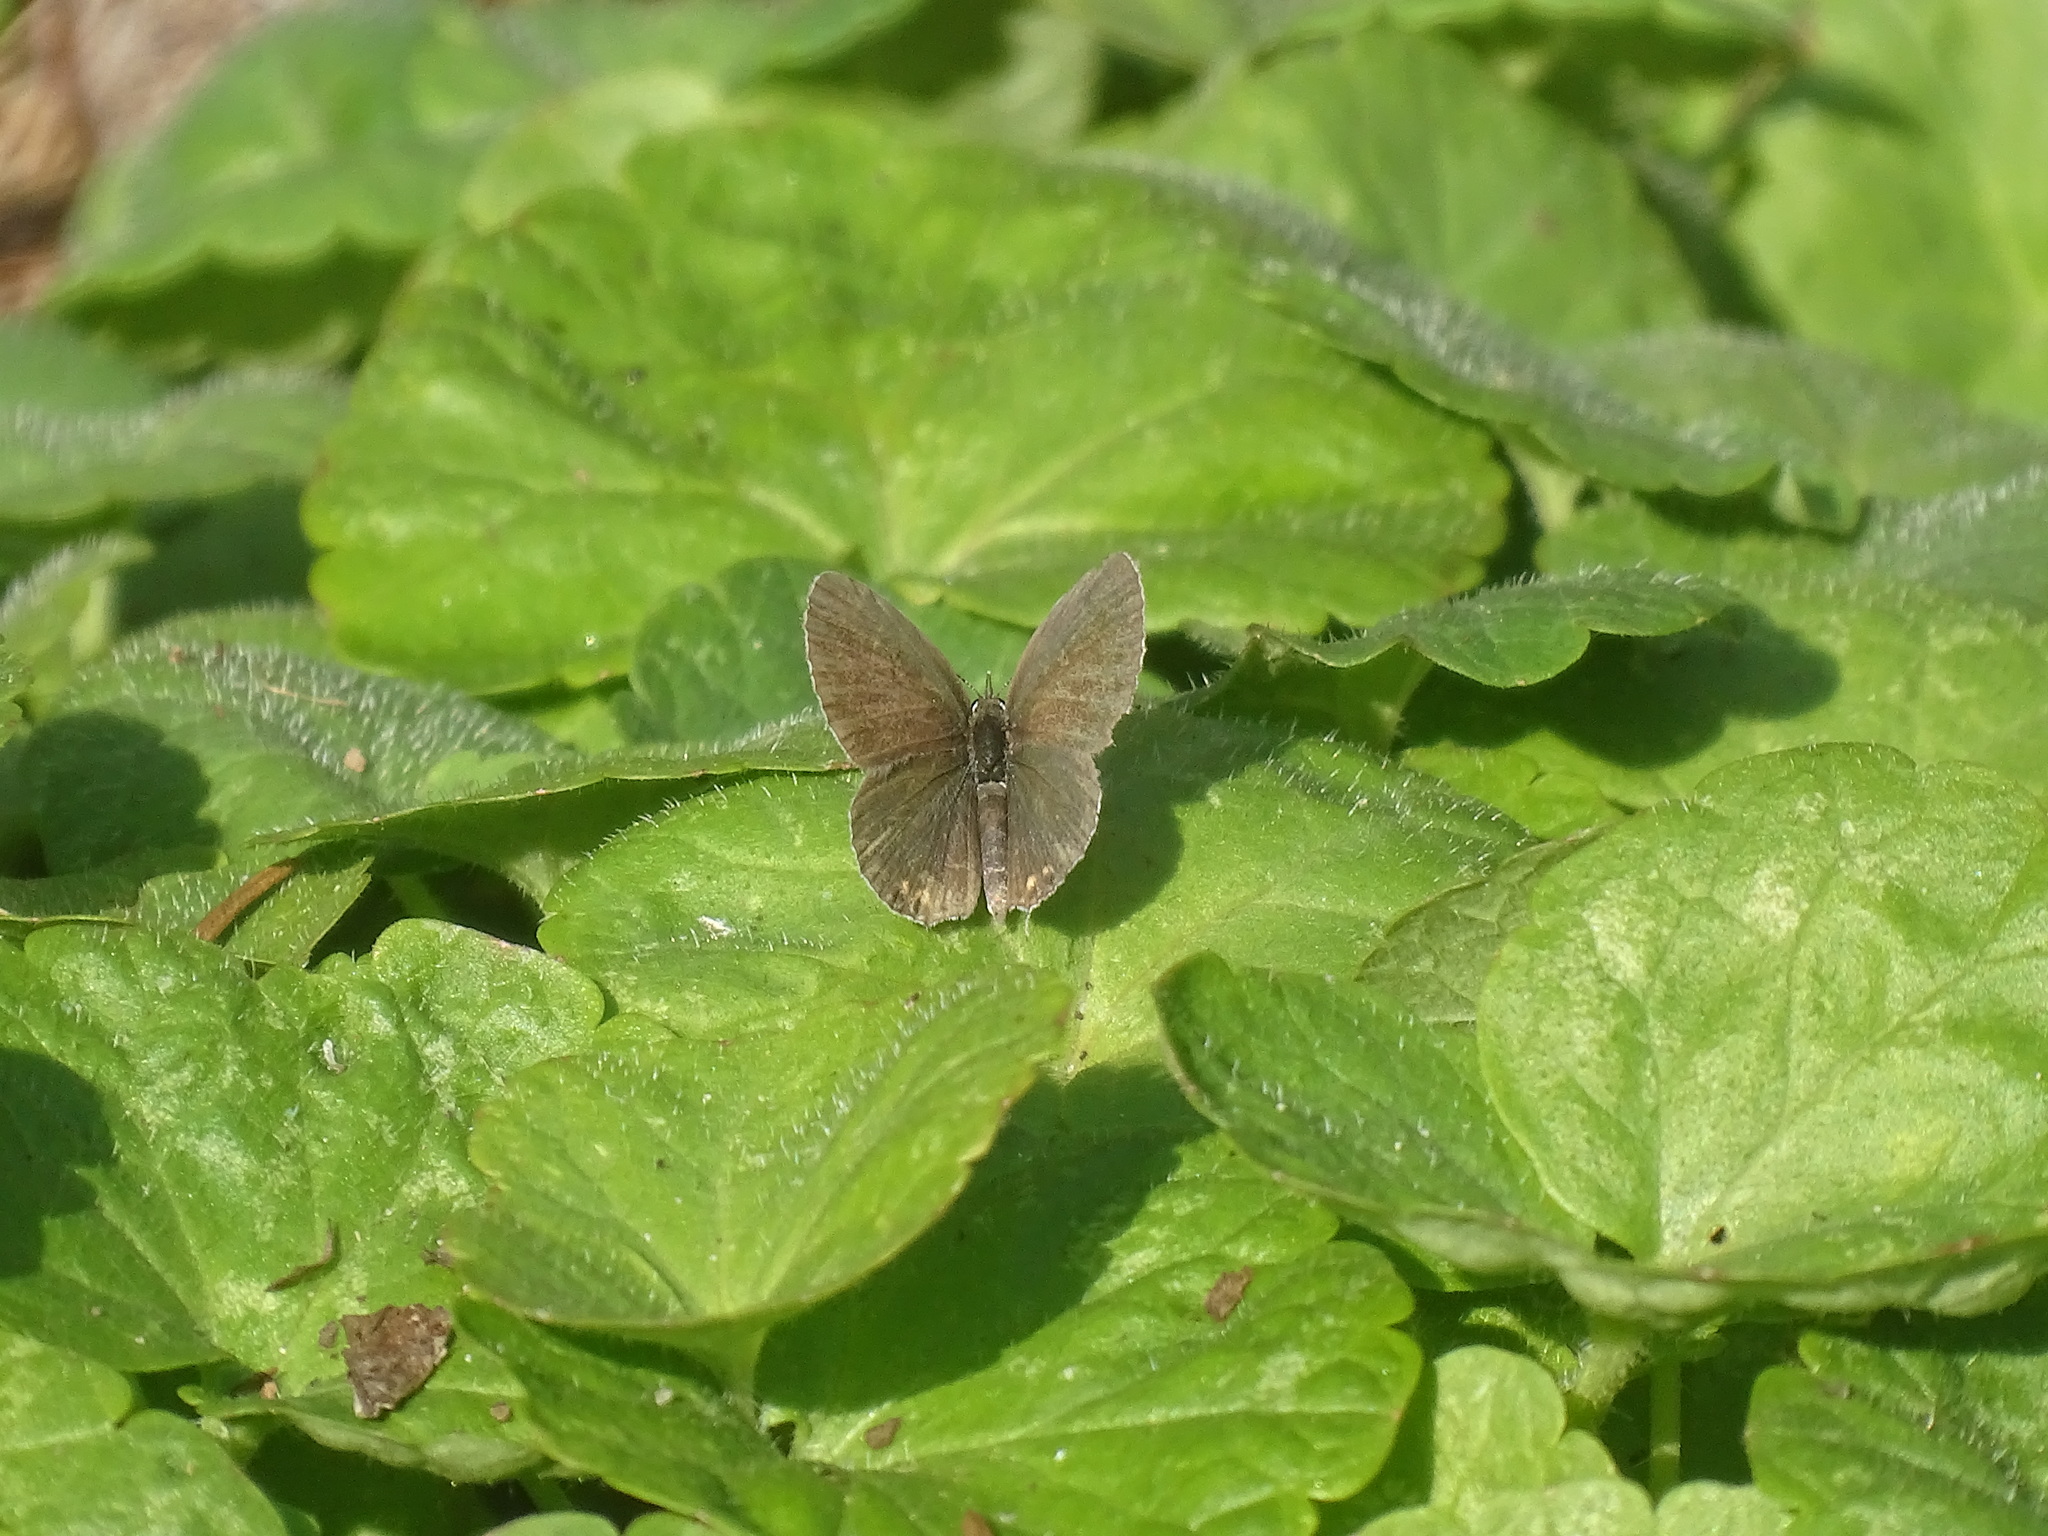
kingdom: Animalia
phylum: Arthropoda
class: Insecta
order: Lepidoptera
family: Lycaenidae
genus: Elkalyce
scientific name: Elkalyce comyntas
